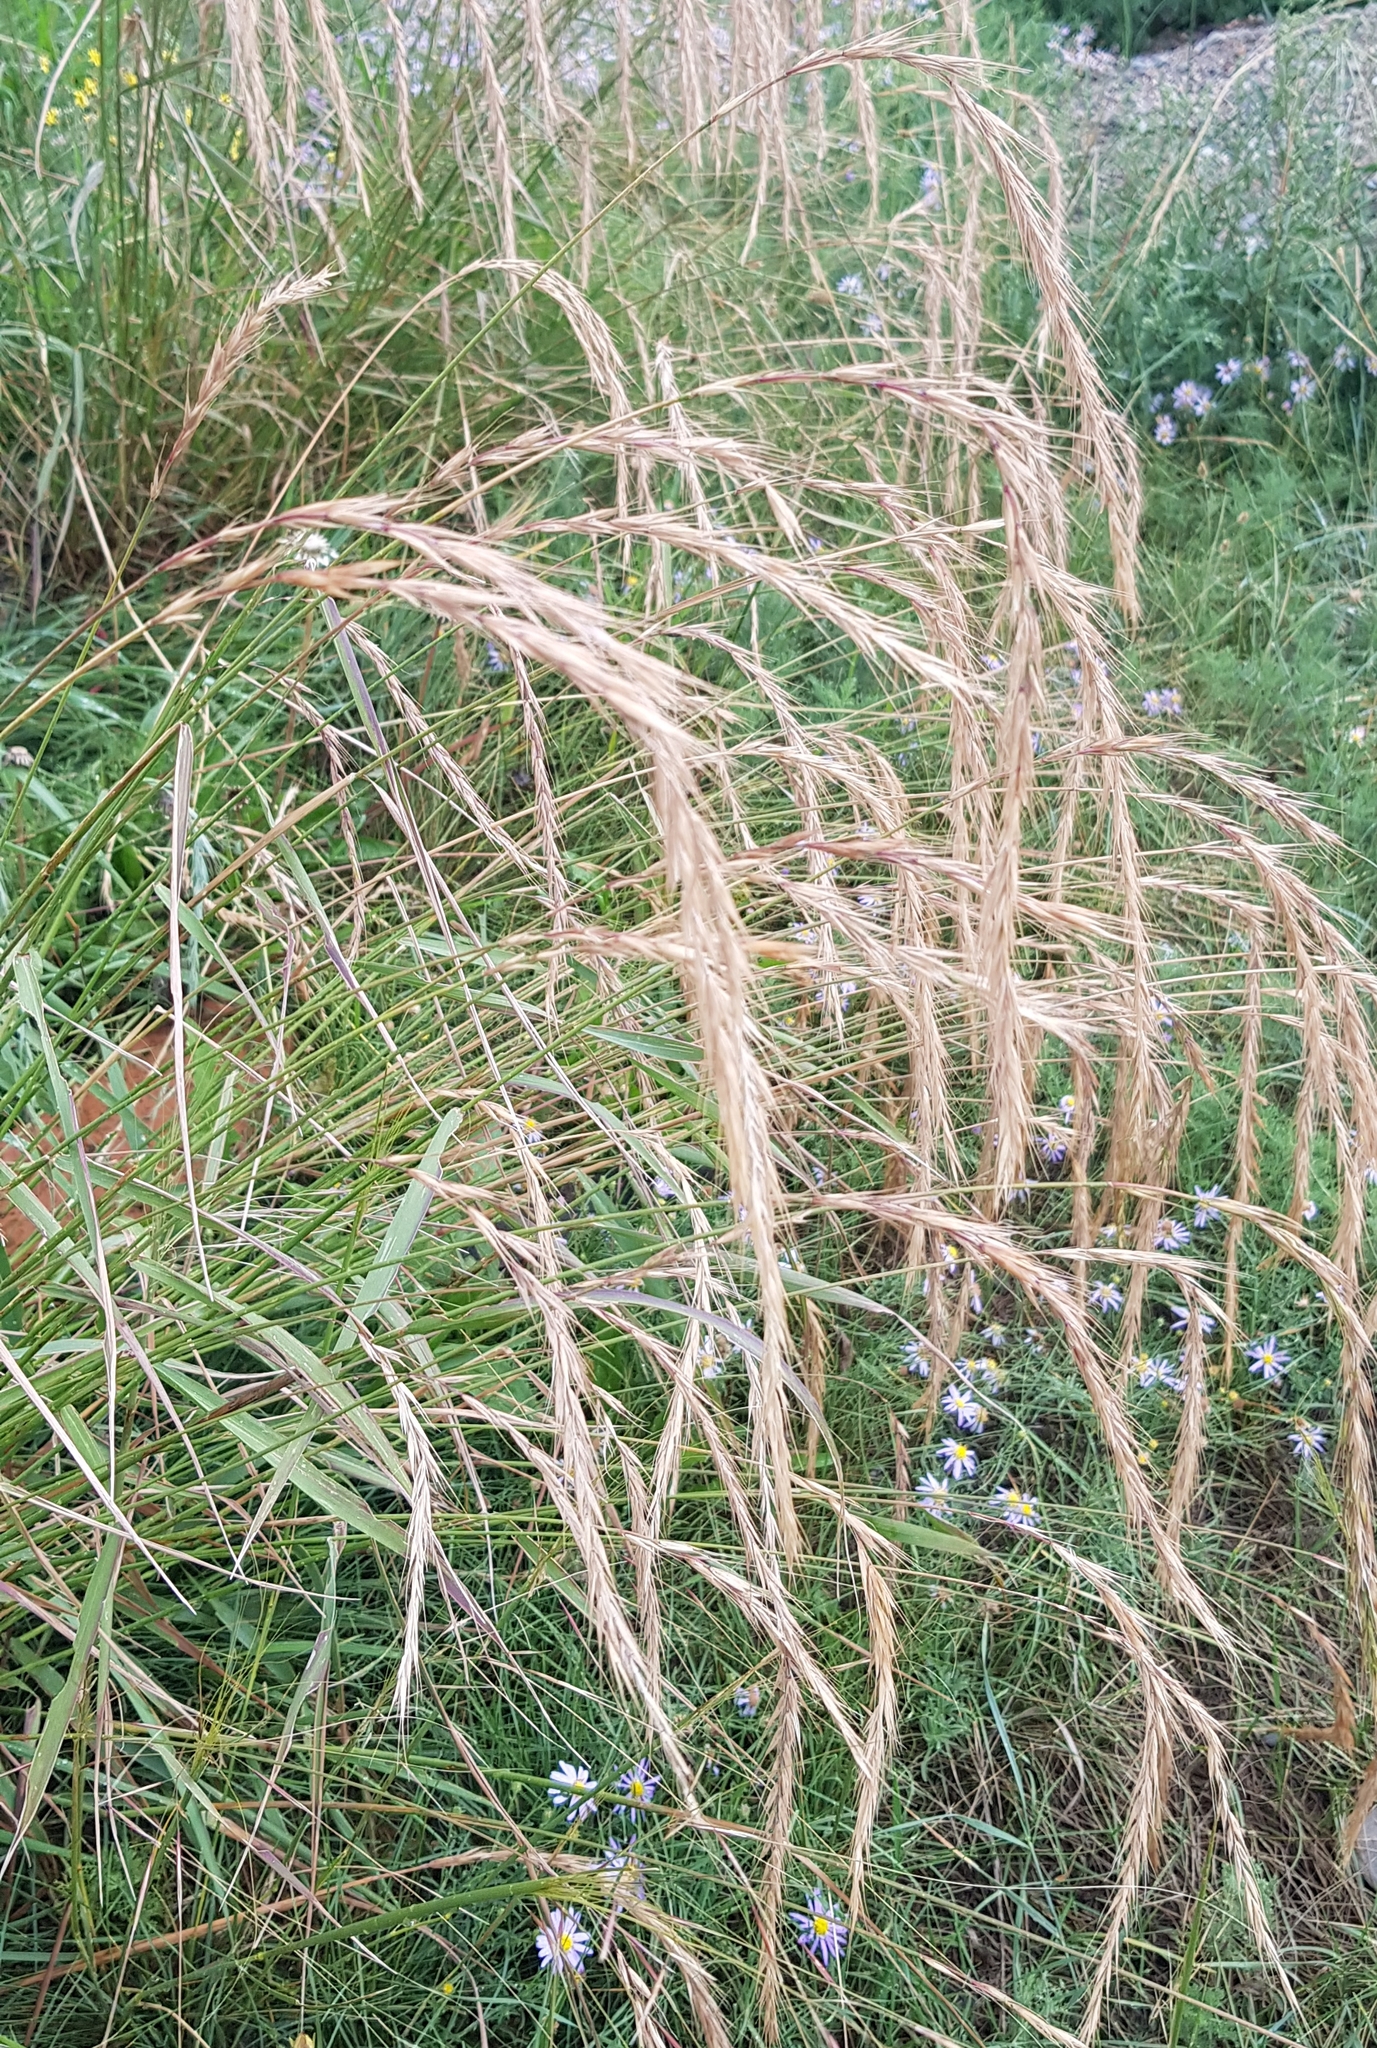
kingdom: Plantae
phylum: Tracheophyta
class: Liliopsida
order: Poales
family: Poaceae
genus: Elymus
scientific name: Elymus sibiricus
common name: Siberian wildrye
